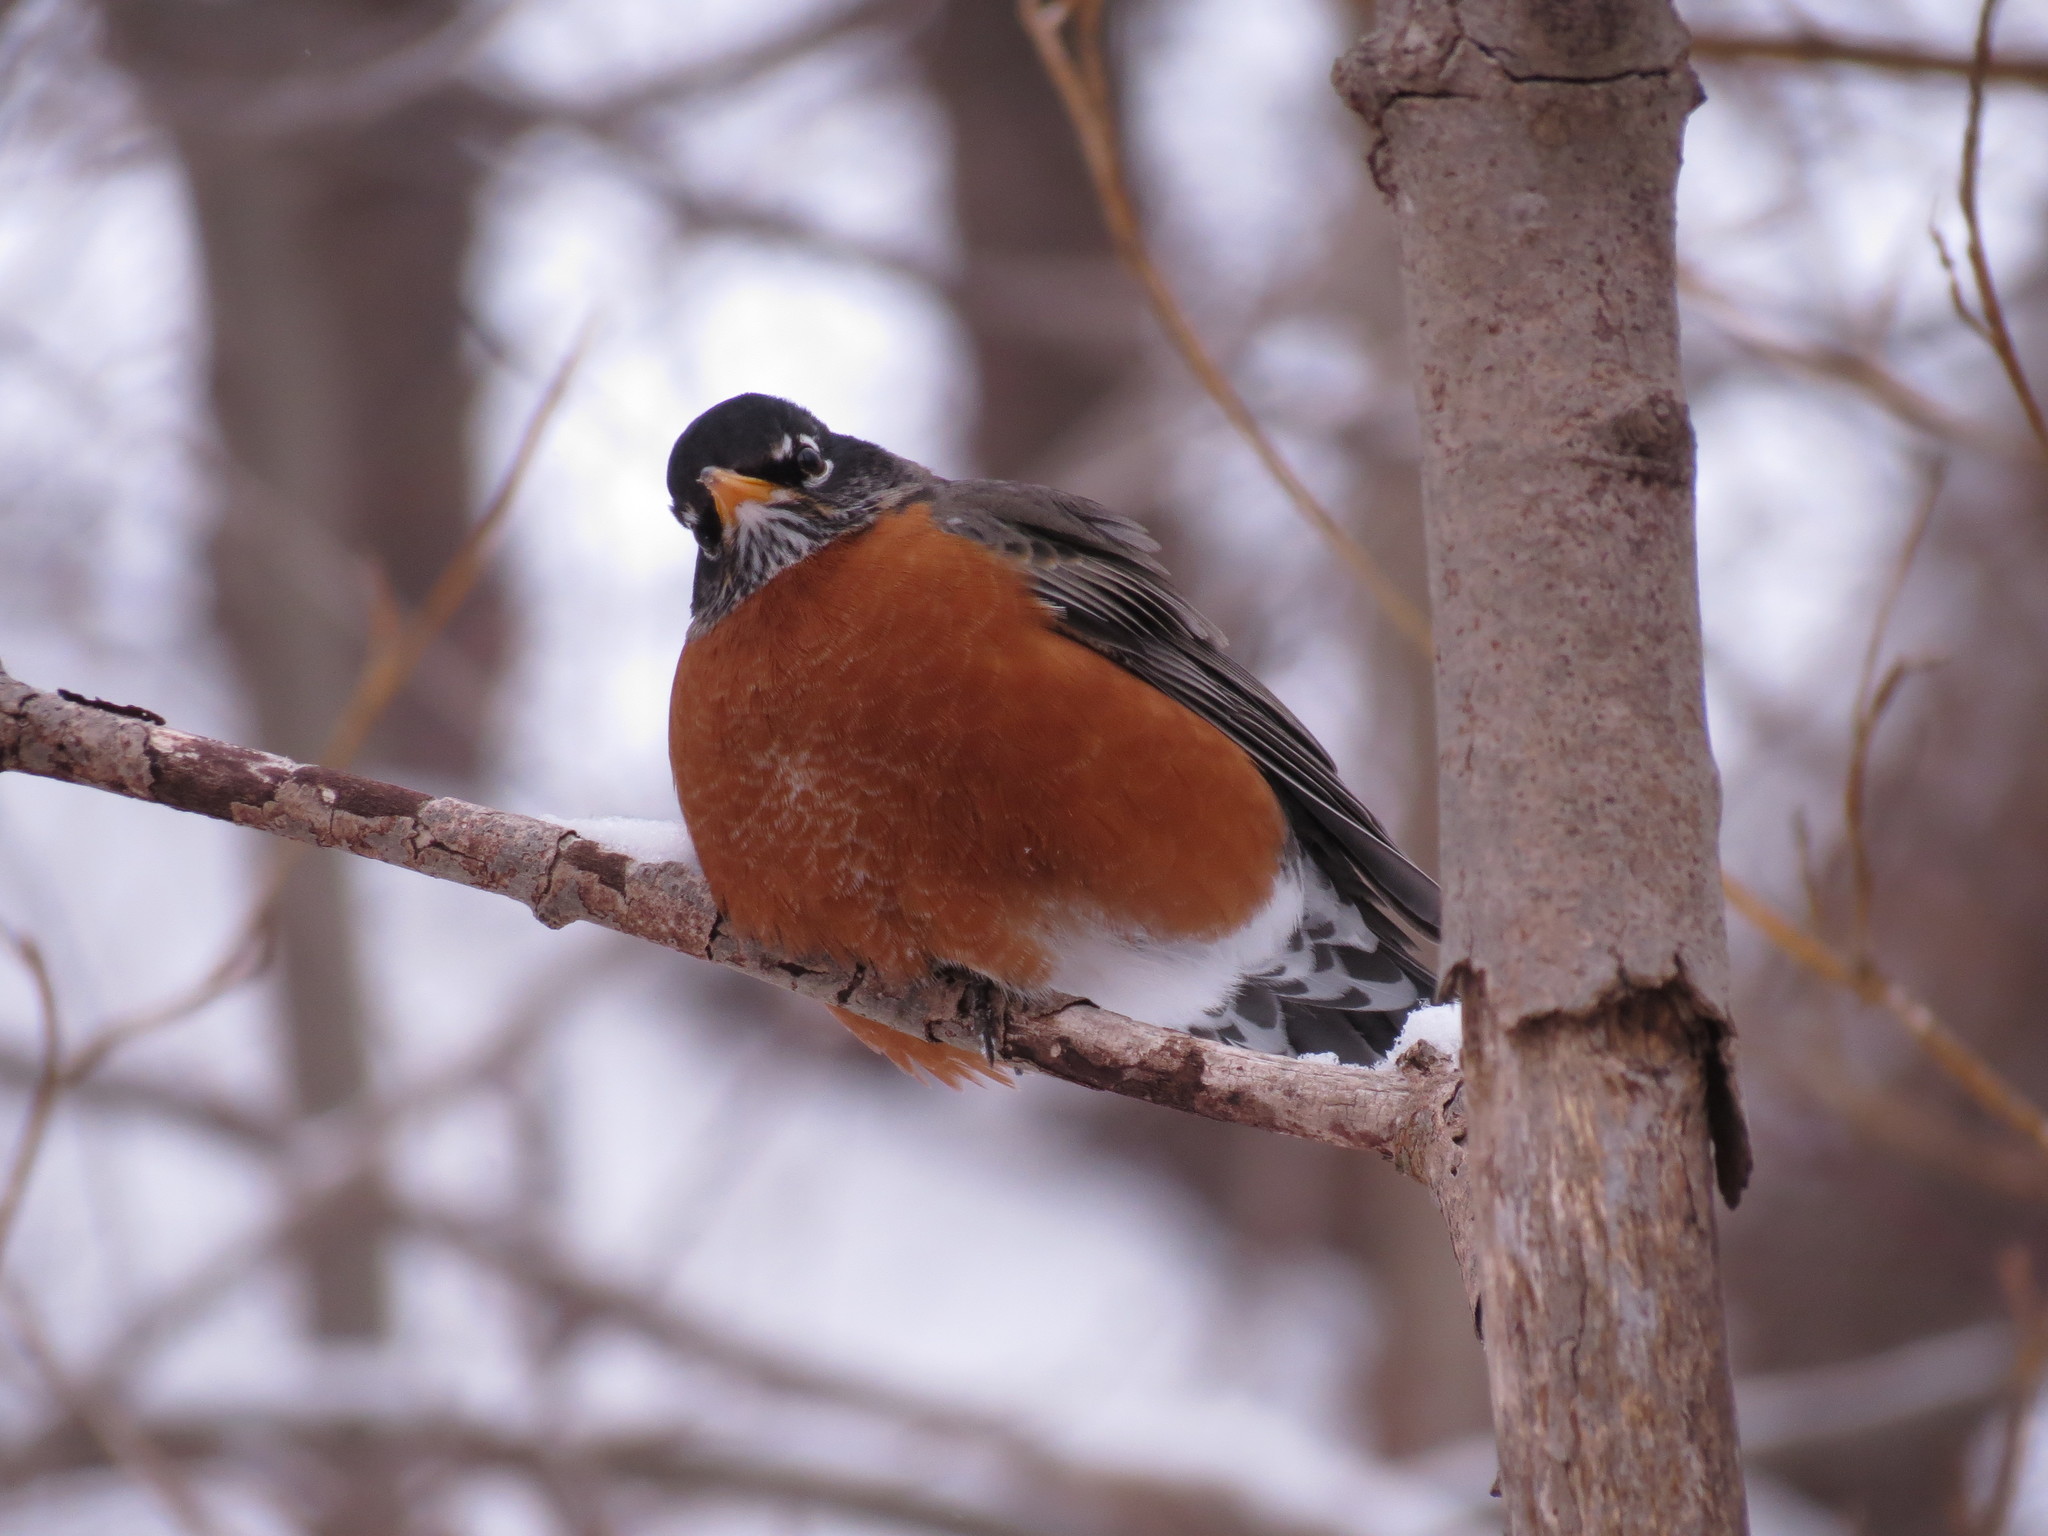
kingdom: Animalia
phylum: Chordata
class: Aves
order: Passeriformes
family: Turdidae
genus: Turdus
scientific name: Turdus migratorius
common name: American robin
